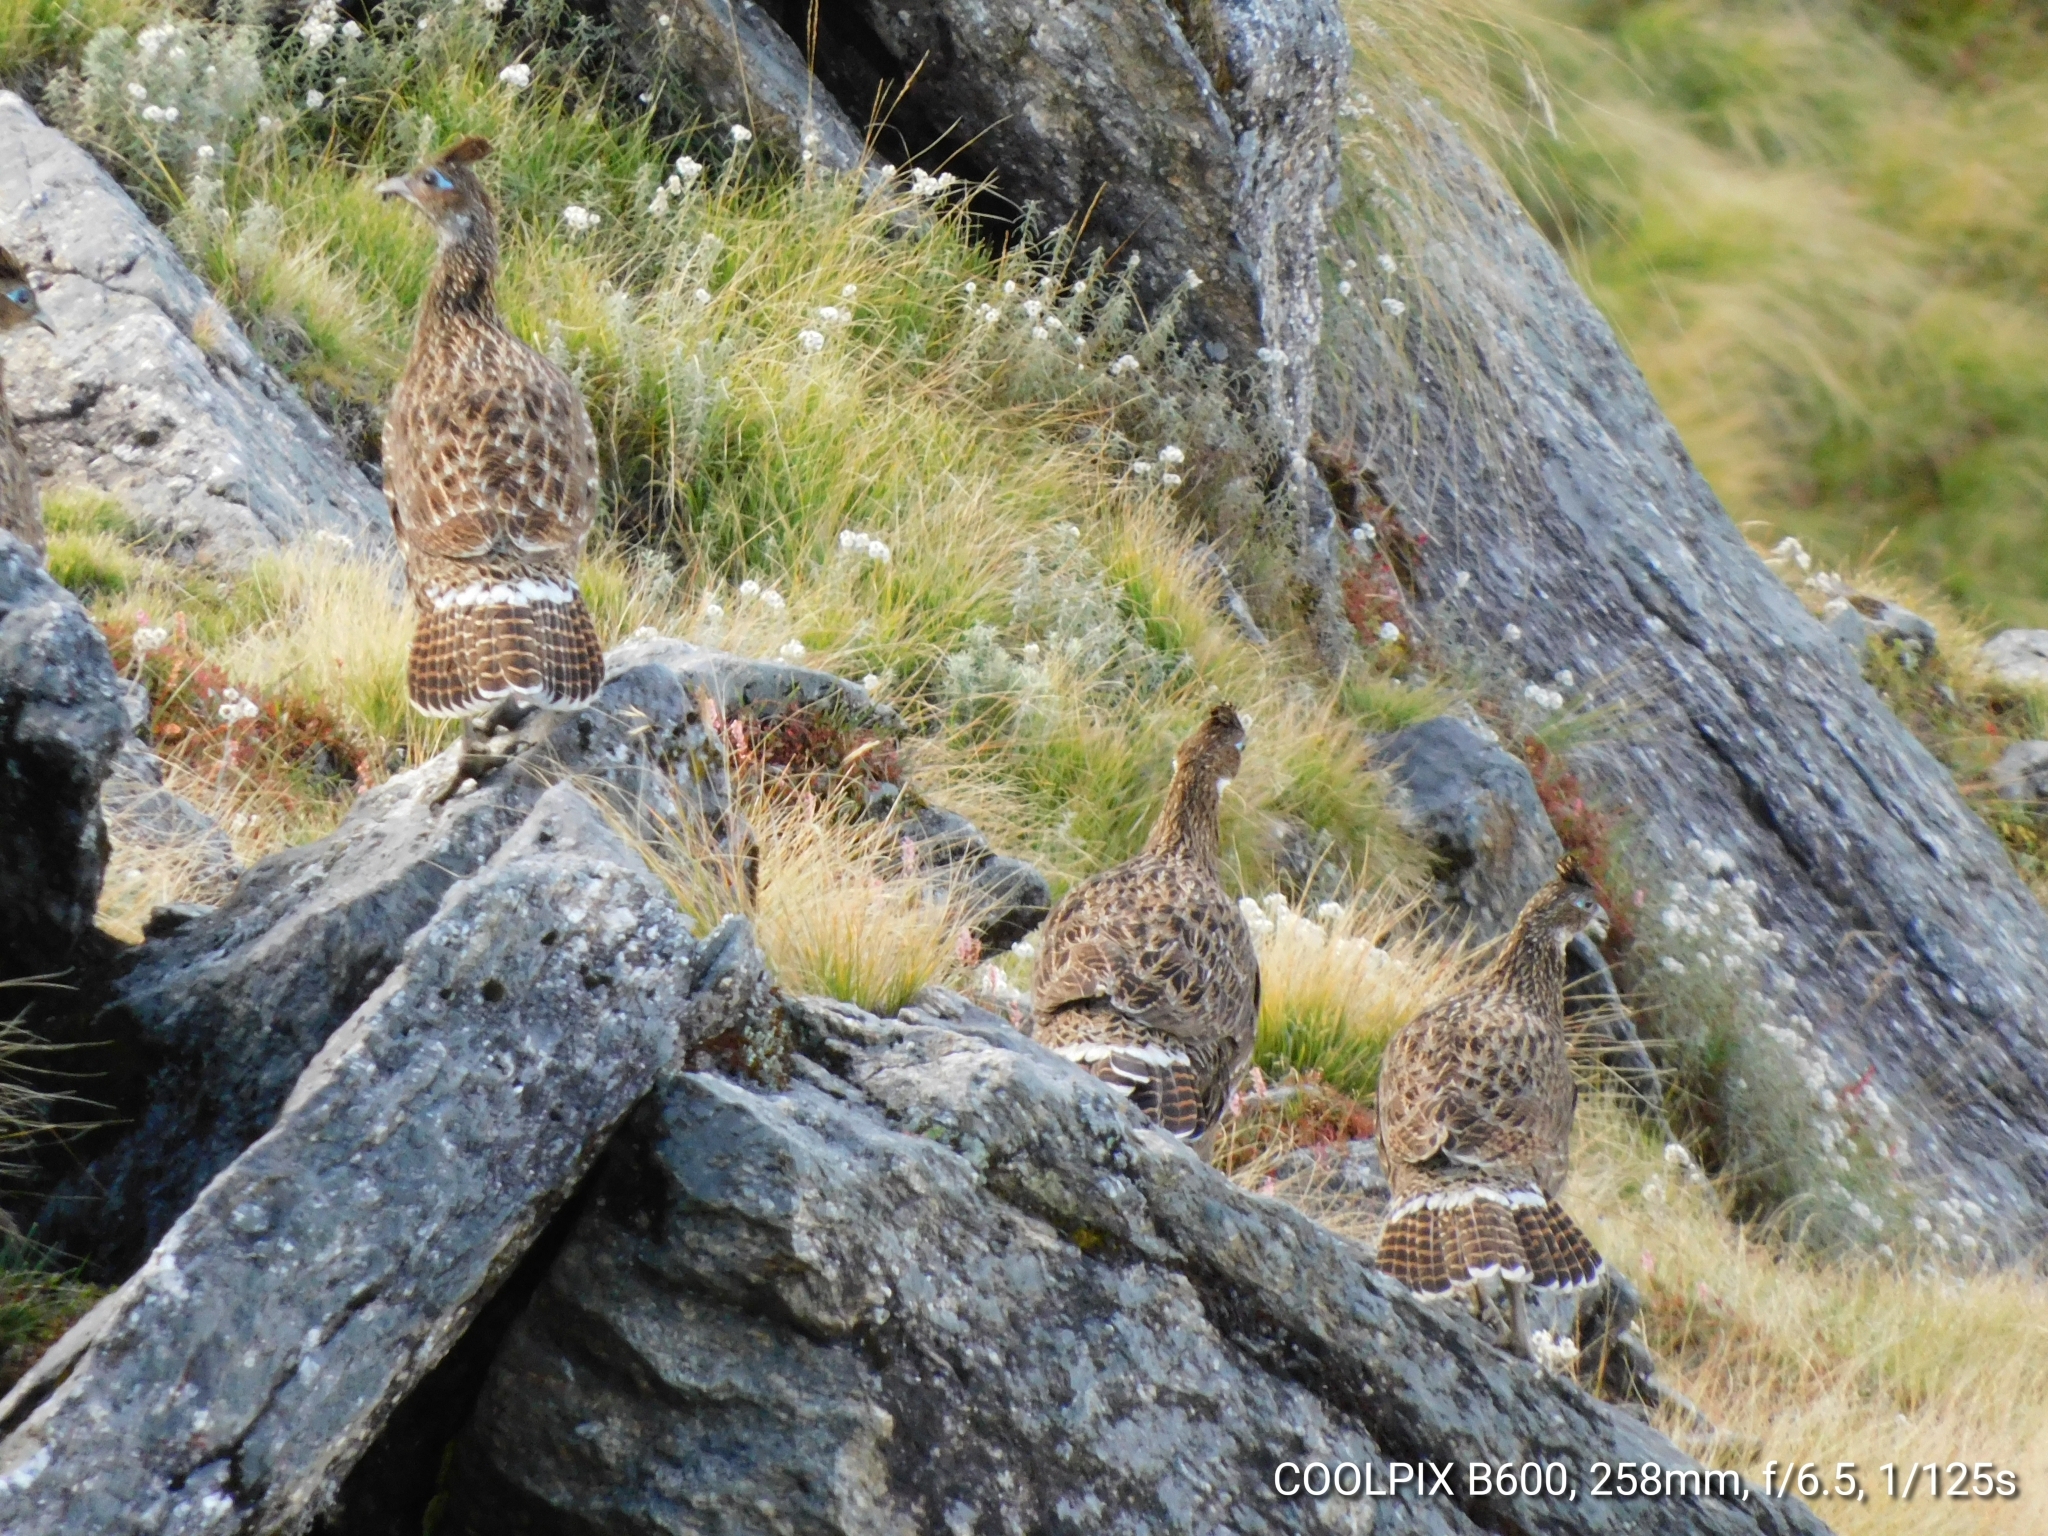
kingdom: Animalia
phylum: Chordata
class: Aves
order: Galliformes
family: Phasianidae
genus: Lophophorus
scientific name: Lophophorus impejanus
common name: Himalayan monal
